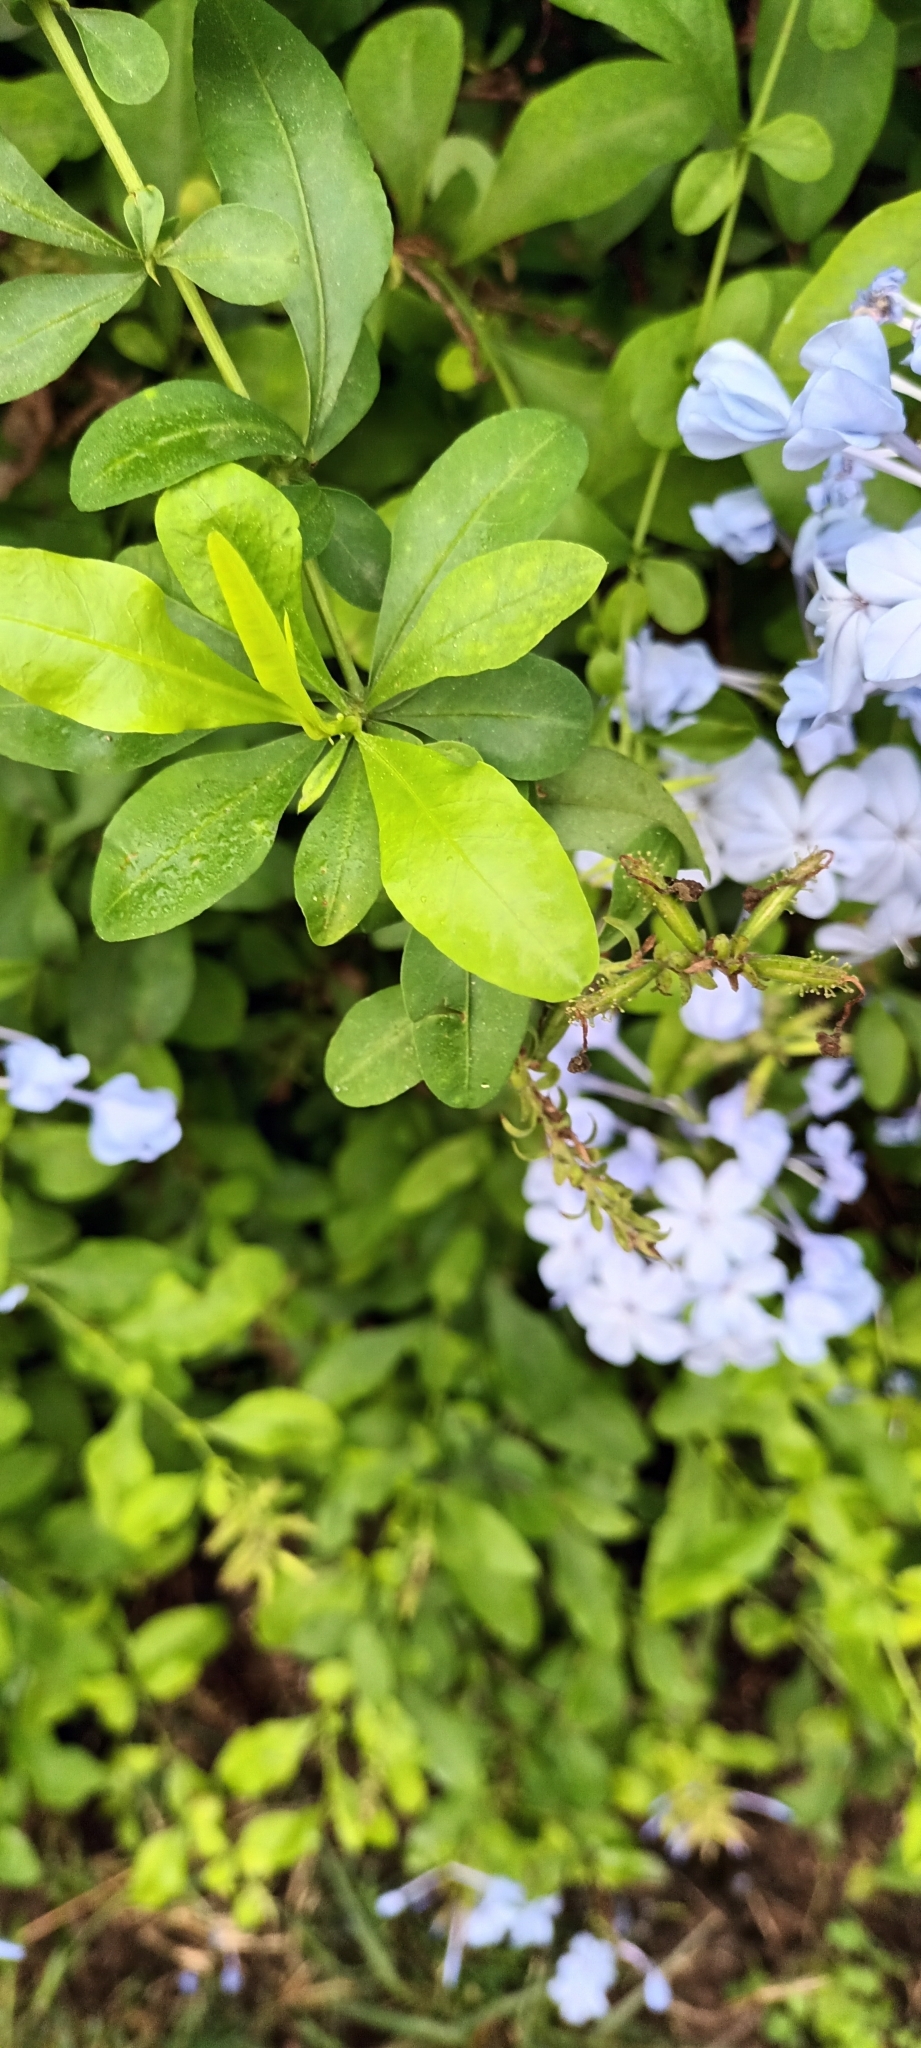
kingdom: Plantae
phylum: Tracheophyta
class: Magnoliopsida
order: Caryophyllales
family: Plumbaginaceae
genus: Plumbago
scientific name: Plumbago auriculata
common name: Cape leadwort
